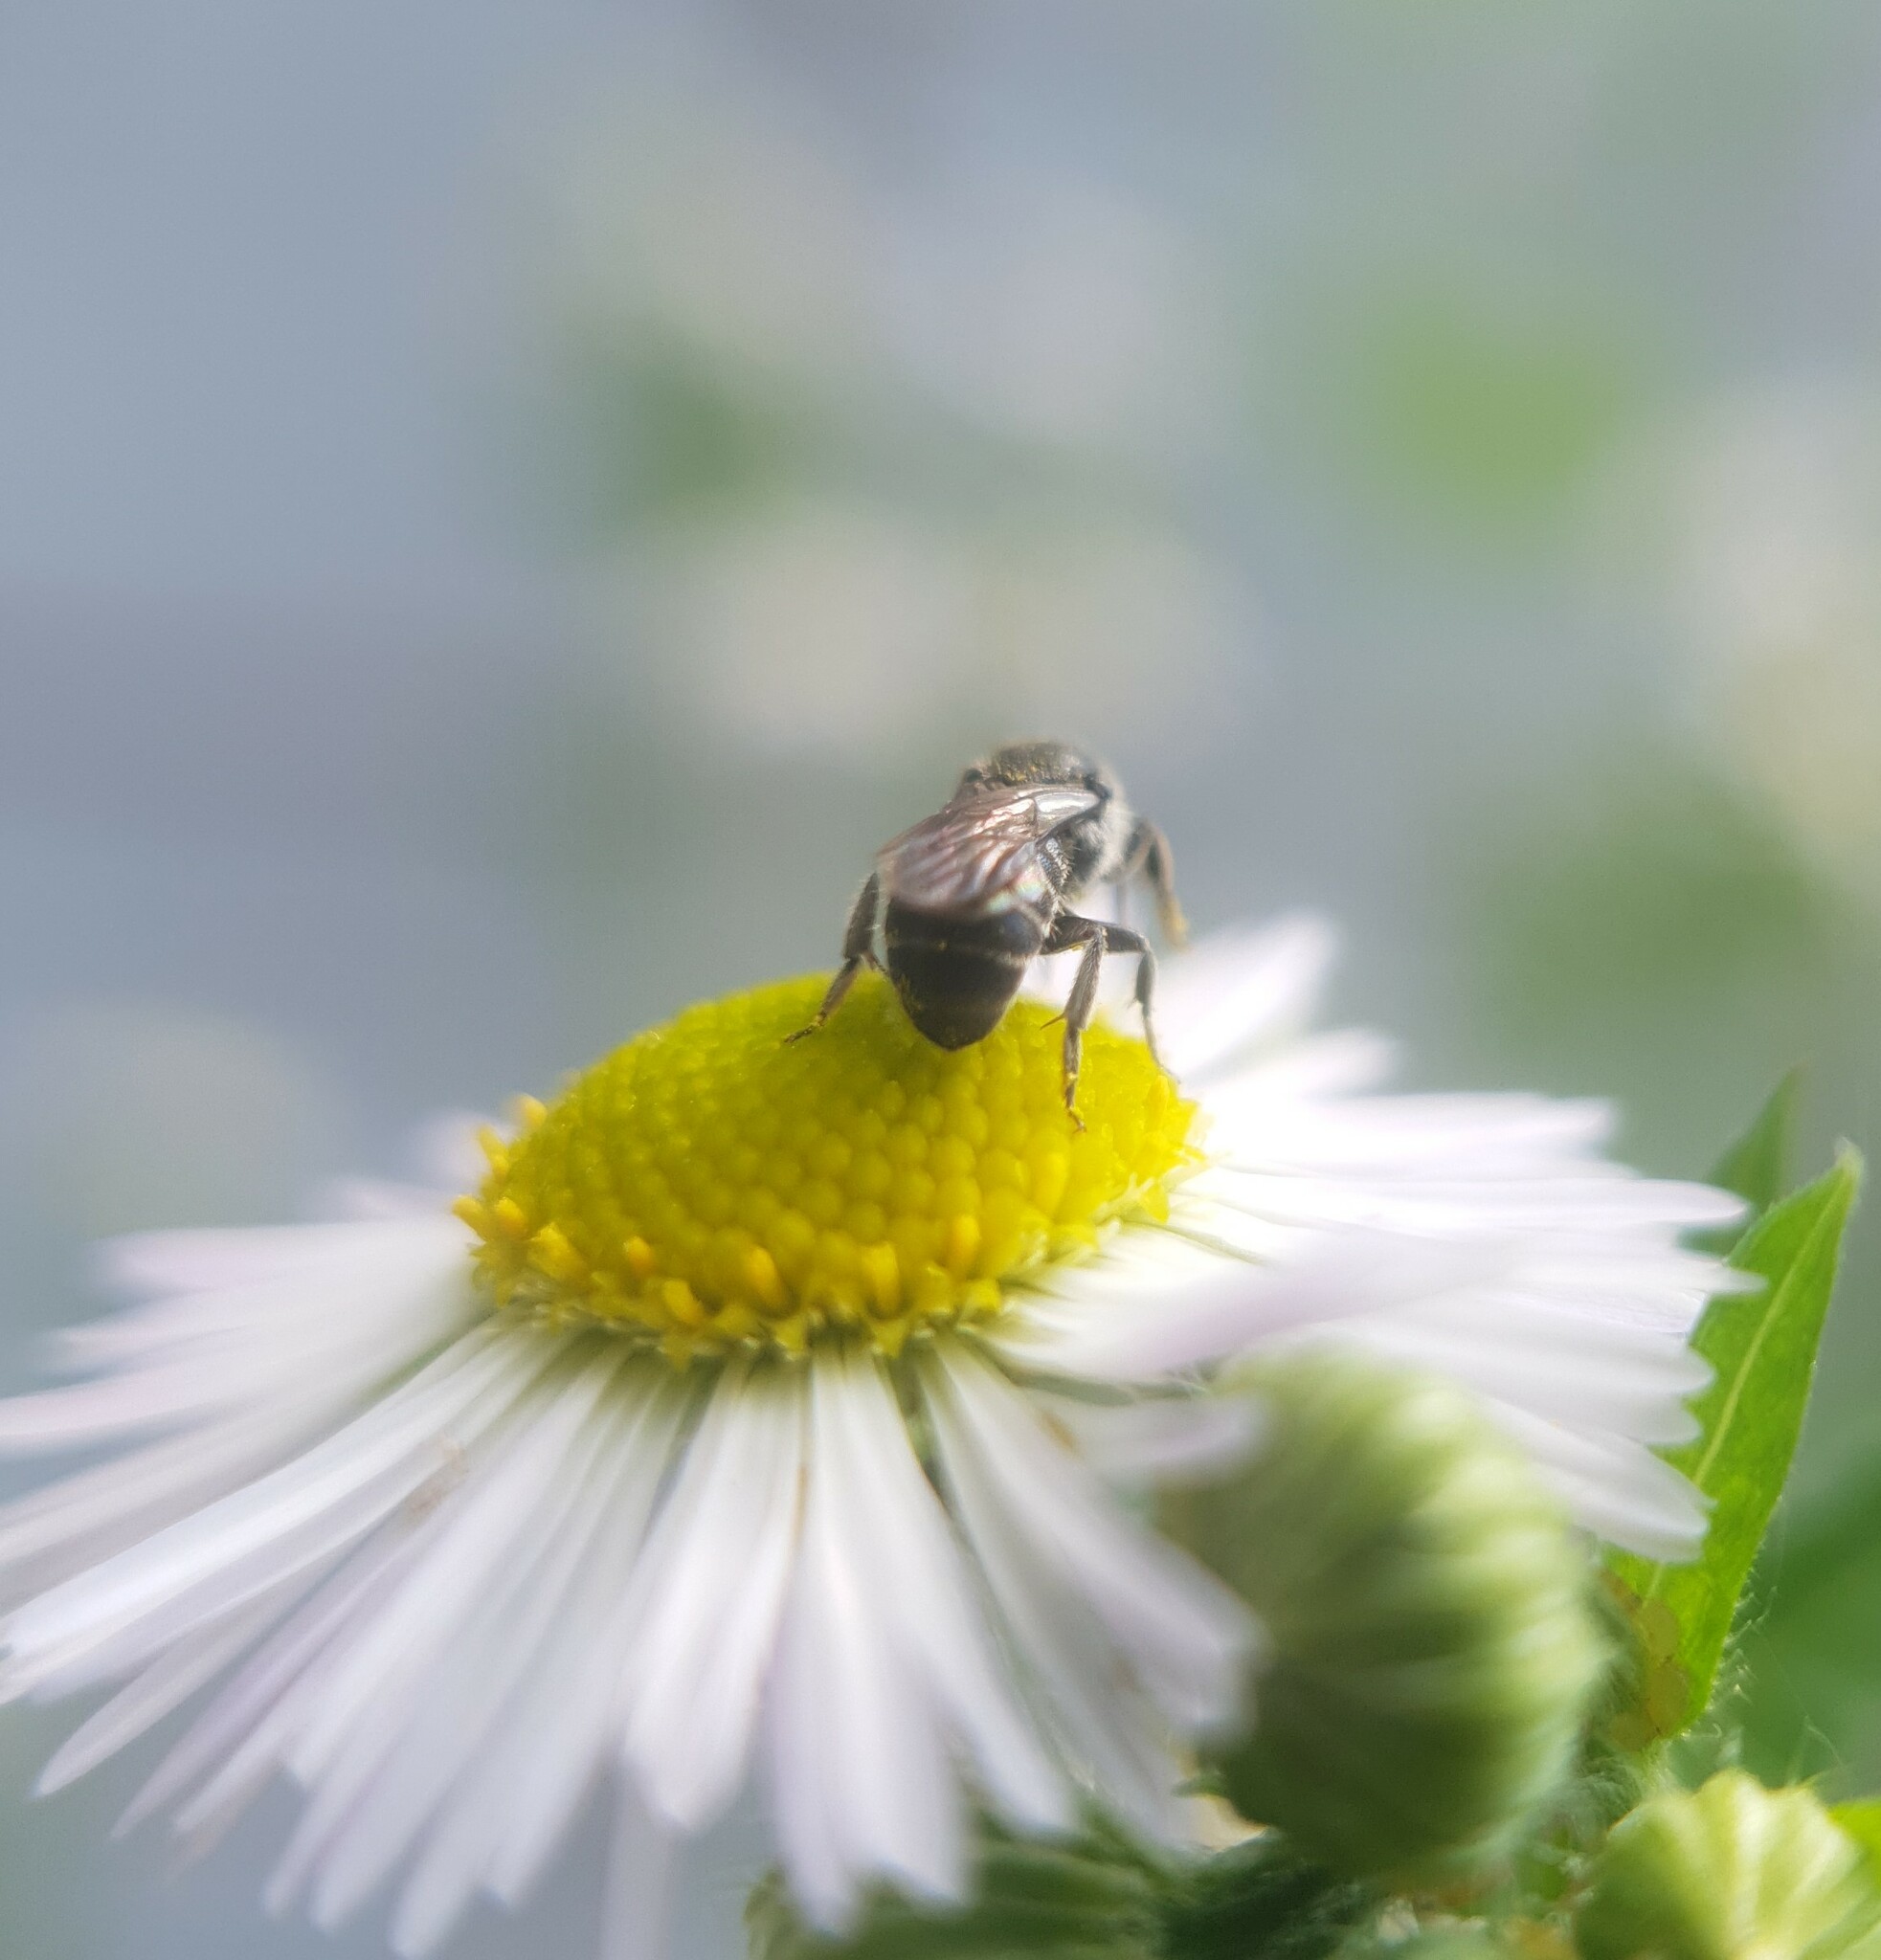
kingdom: Animalia
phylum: Arthropoda
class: Insecta
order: Hymenoptera
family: Megachilidae
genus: Stelis
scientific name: Stelis breviuscula
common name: Little dark bee
